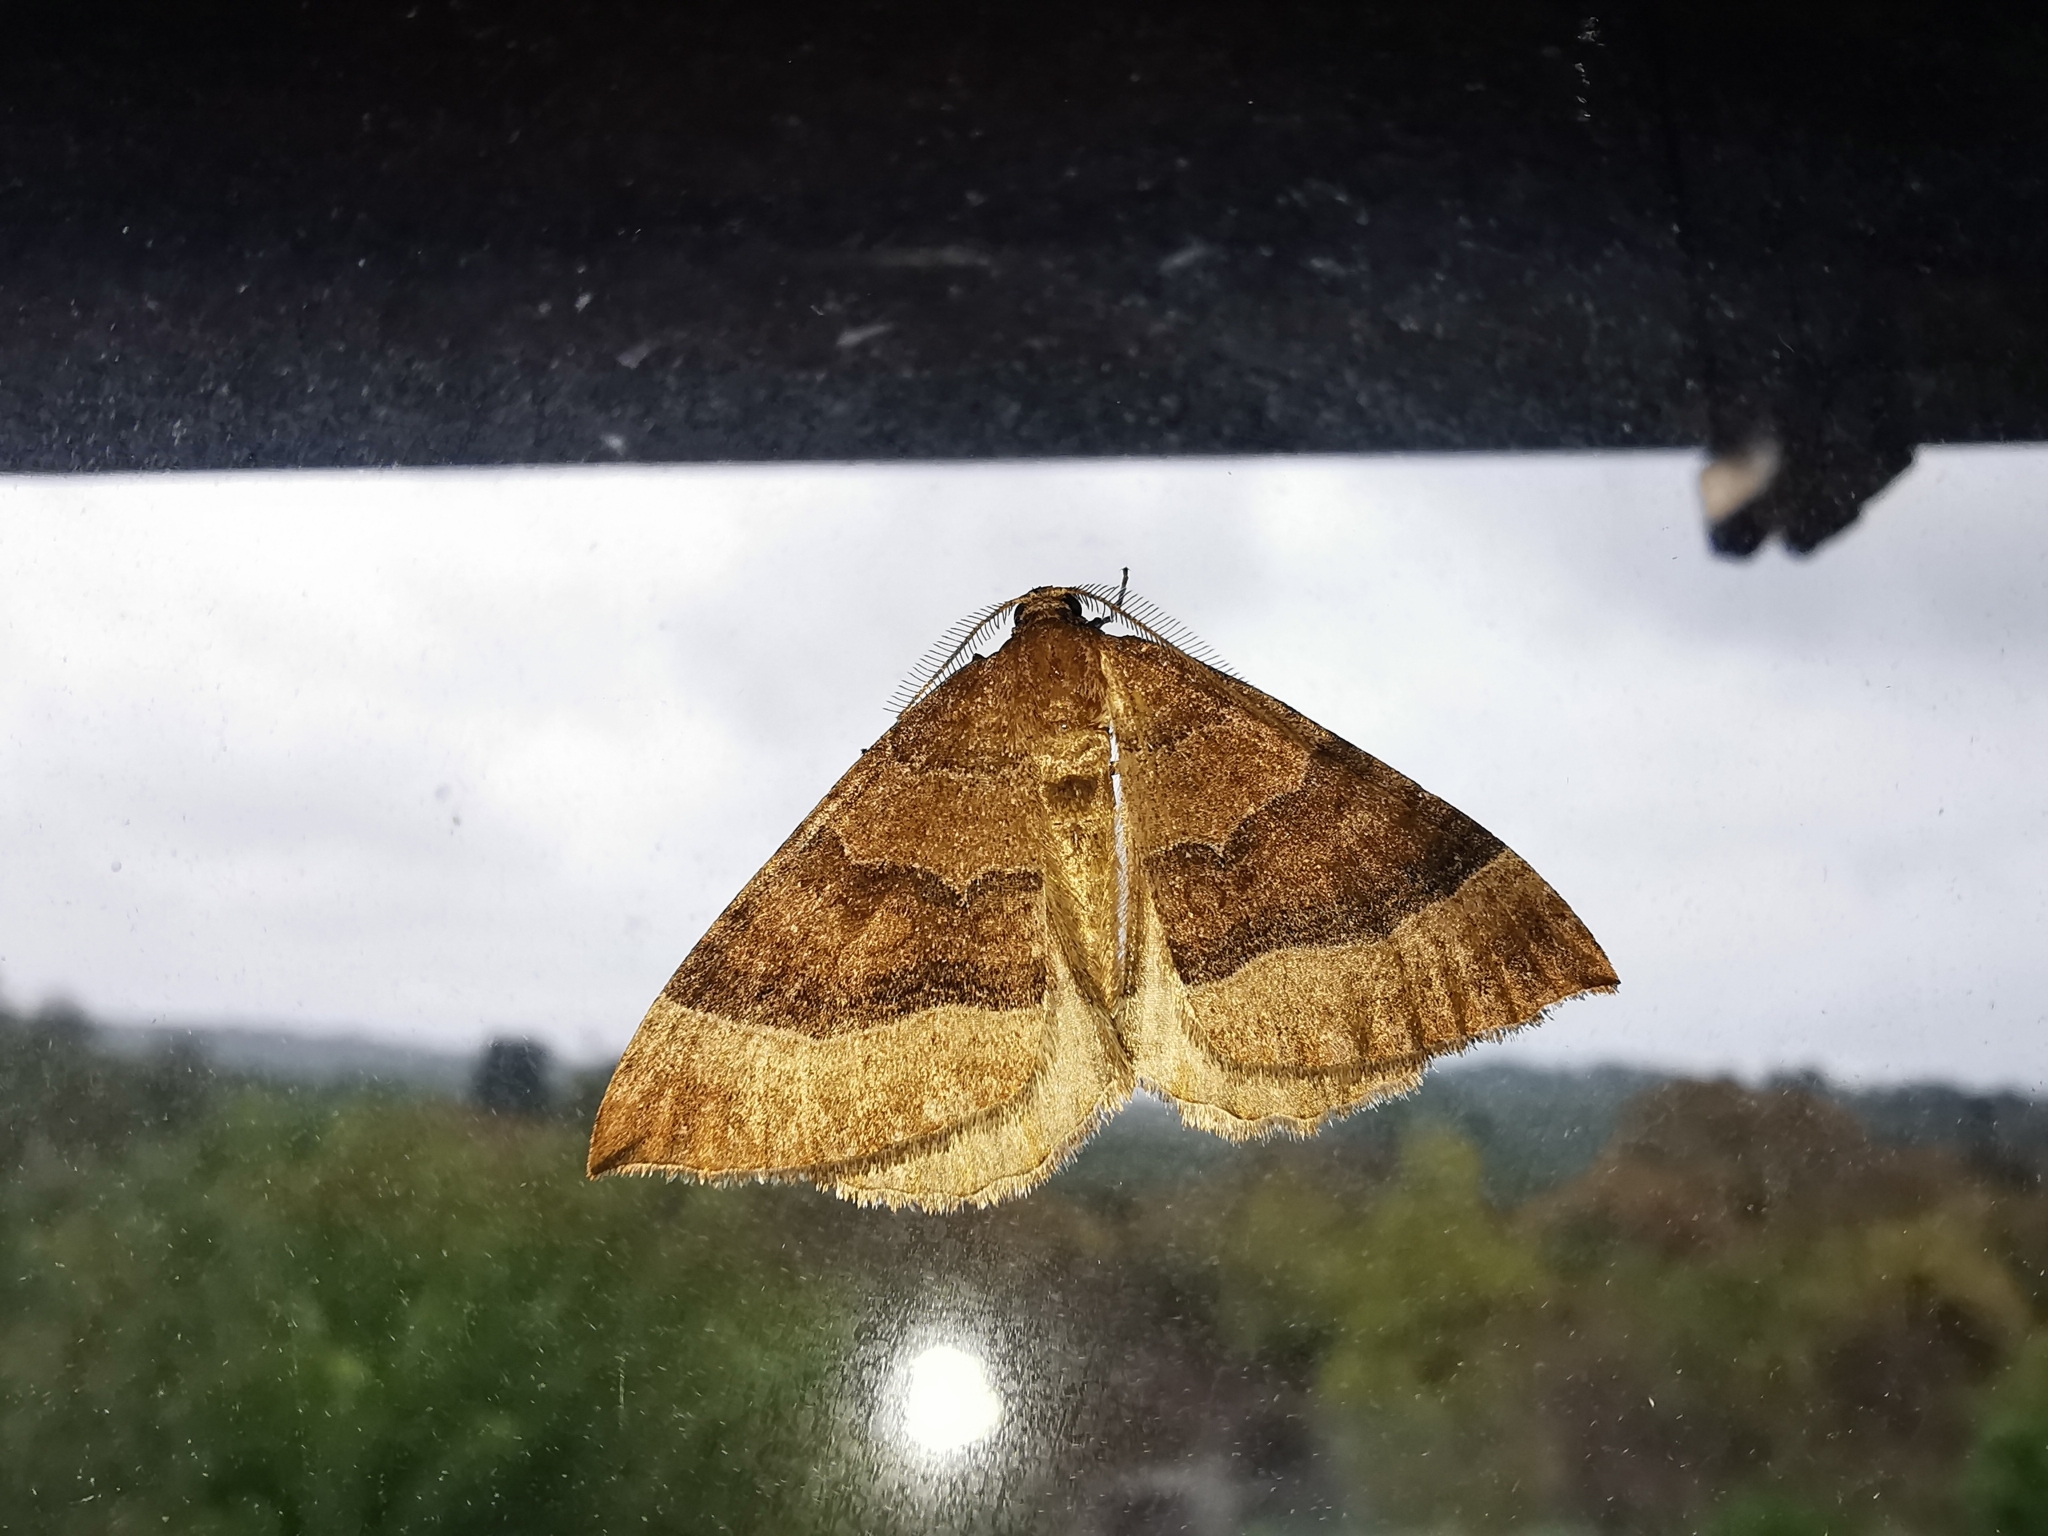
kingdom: Animalia
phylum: Arthropoda
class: Insecta
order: Lepidoptera
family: Geometridae
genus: Larentia
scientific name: Larentia clavaria
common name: Mallow
